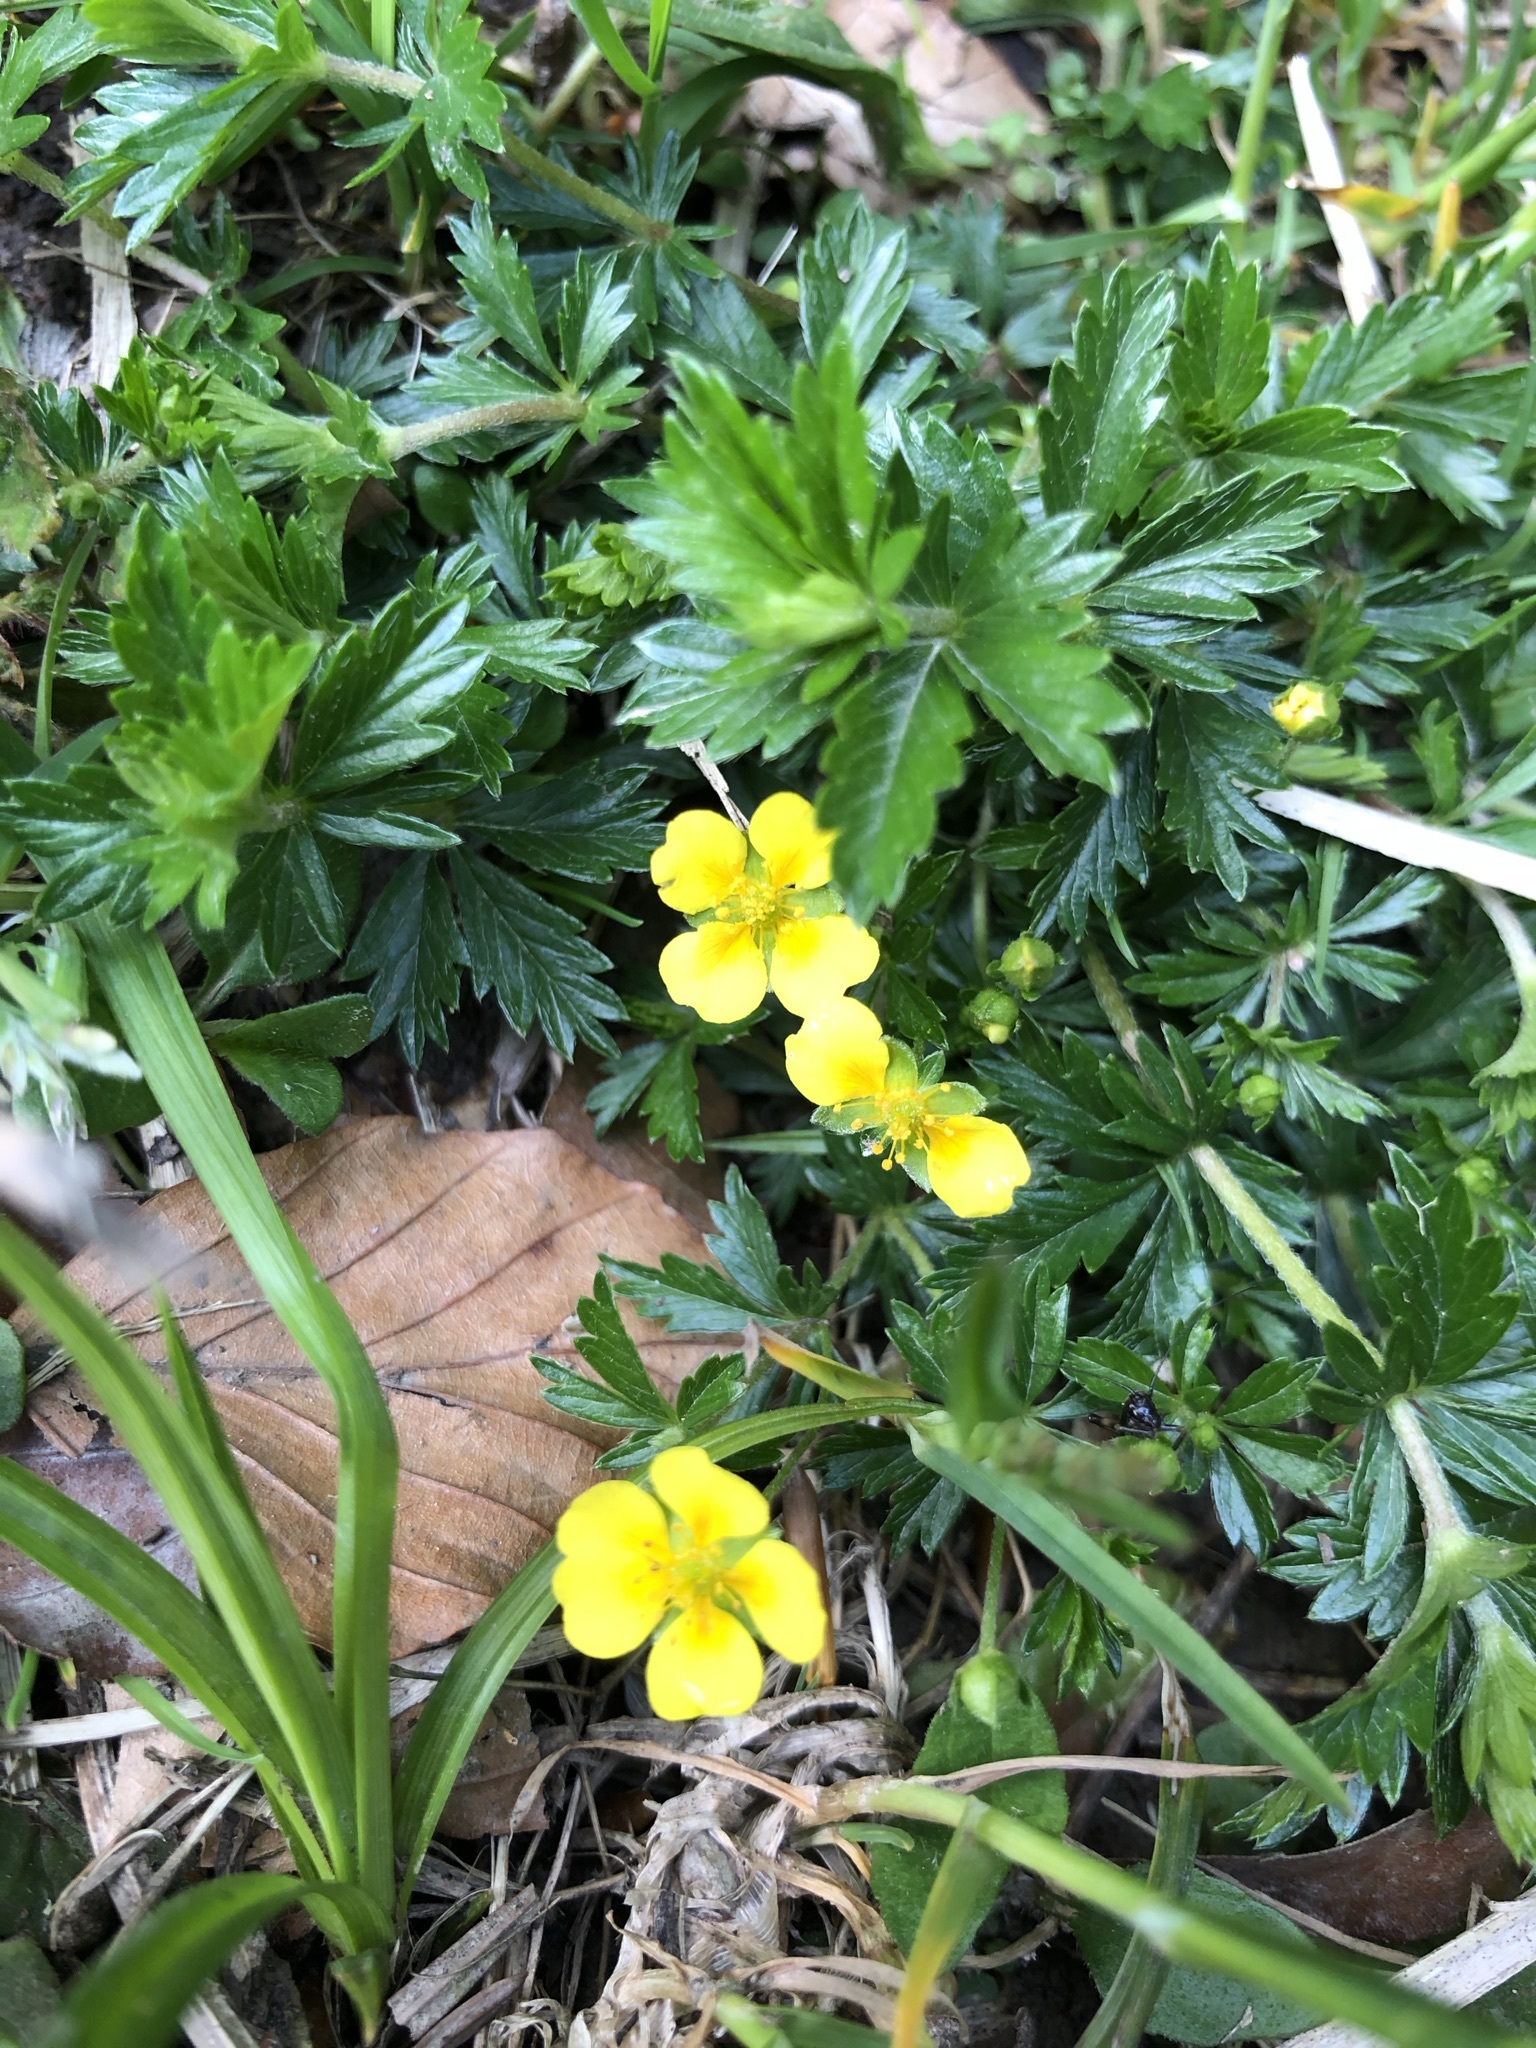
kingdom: Plantae
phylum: Tracheophyta
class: Magnoliopsida
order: Rosales
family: Rosaceae
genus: Potentilla
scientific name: Potentilla erecta
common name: Tormentil
